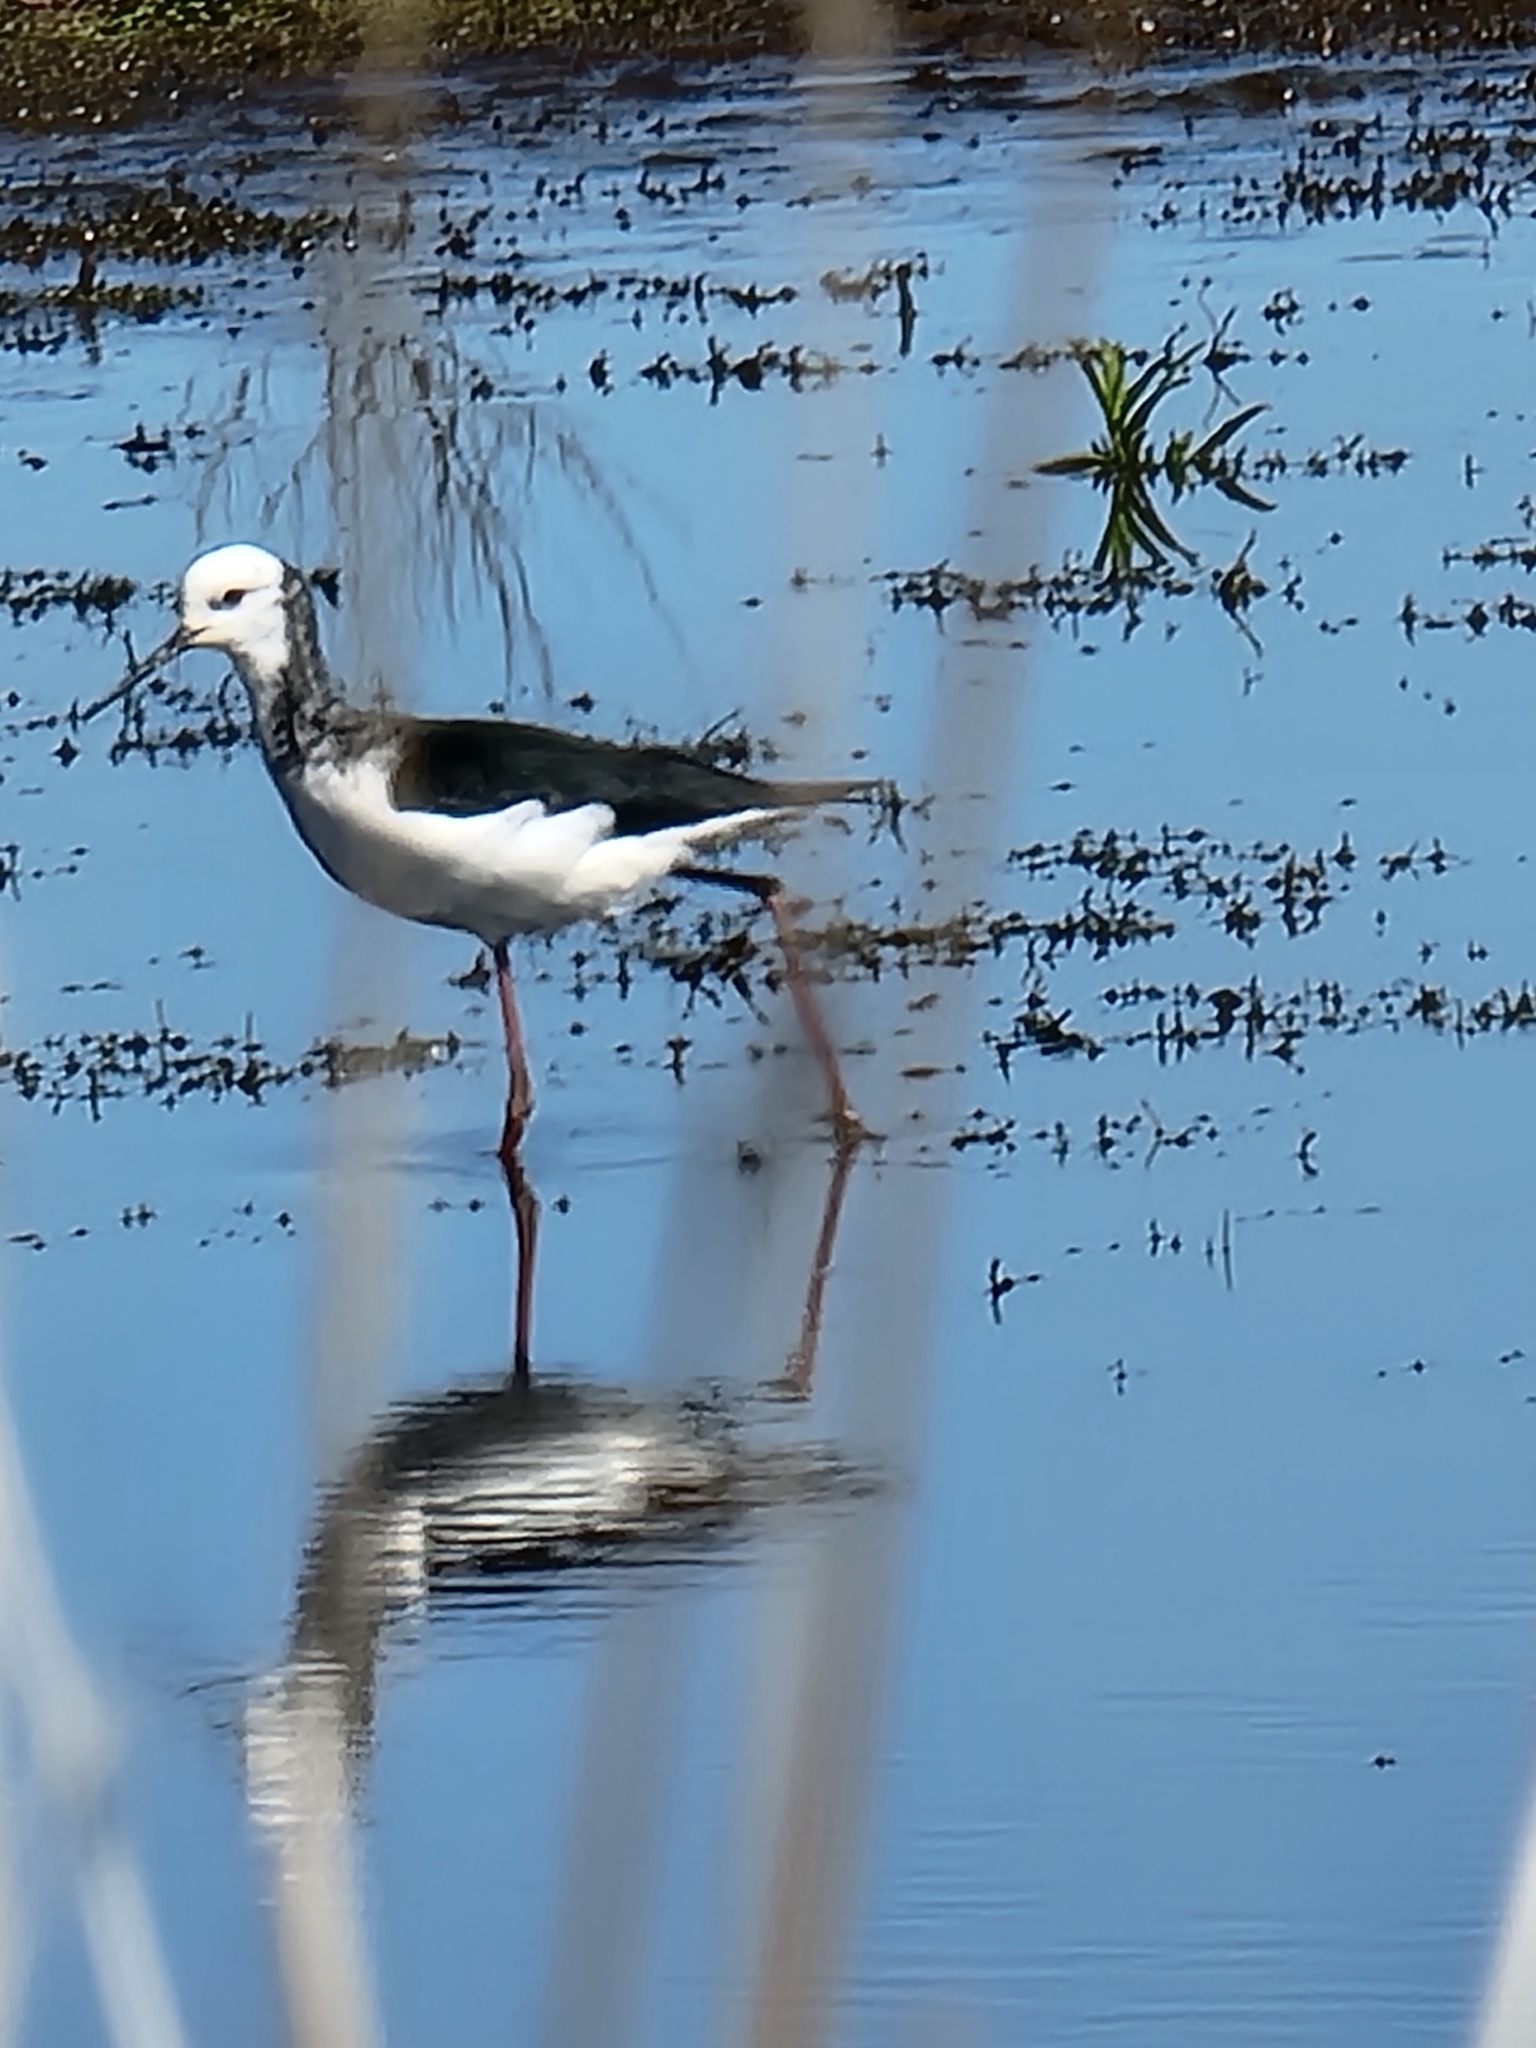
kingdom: Animalia
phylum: Chordata
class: Aves
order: Charadriiformes
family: Recurvirostridae
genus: Himantopus
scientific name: Himantopus leucocephalus
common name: White-headed stilt
